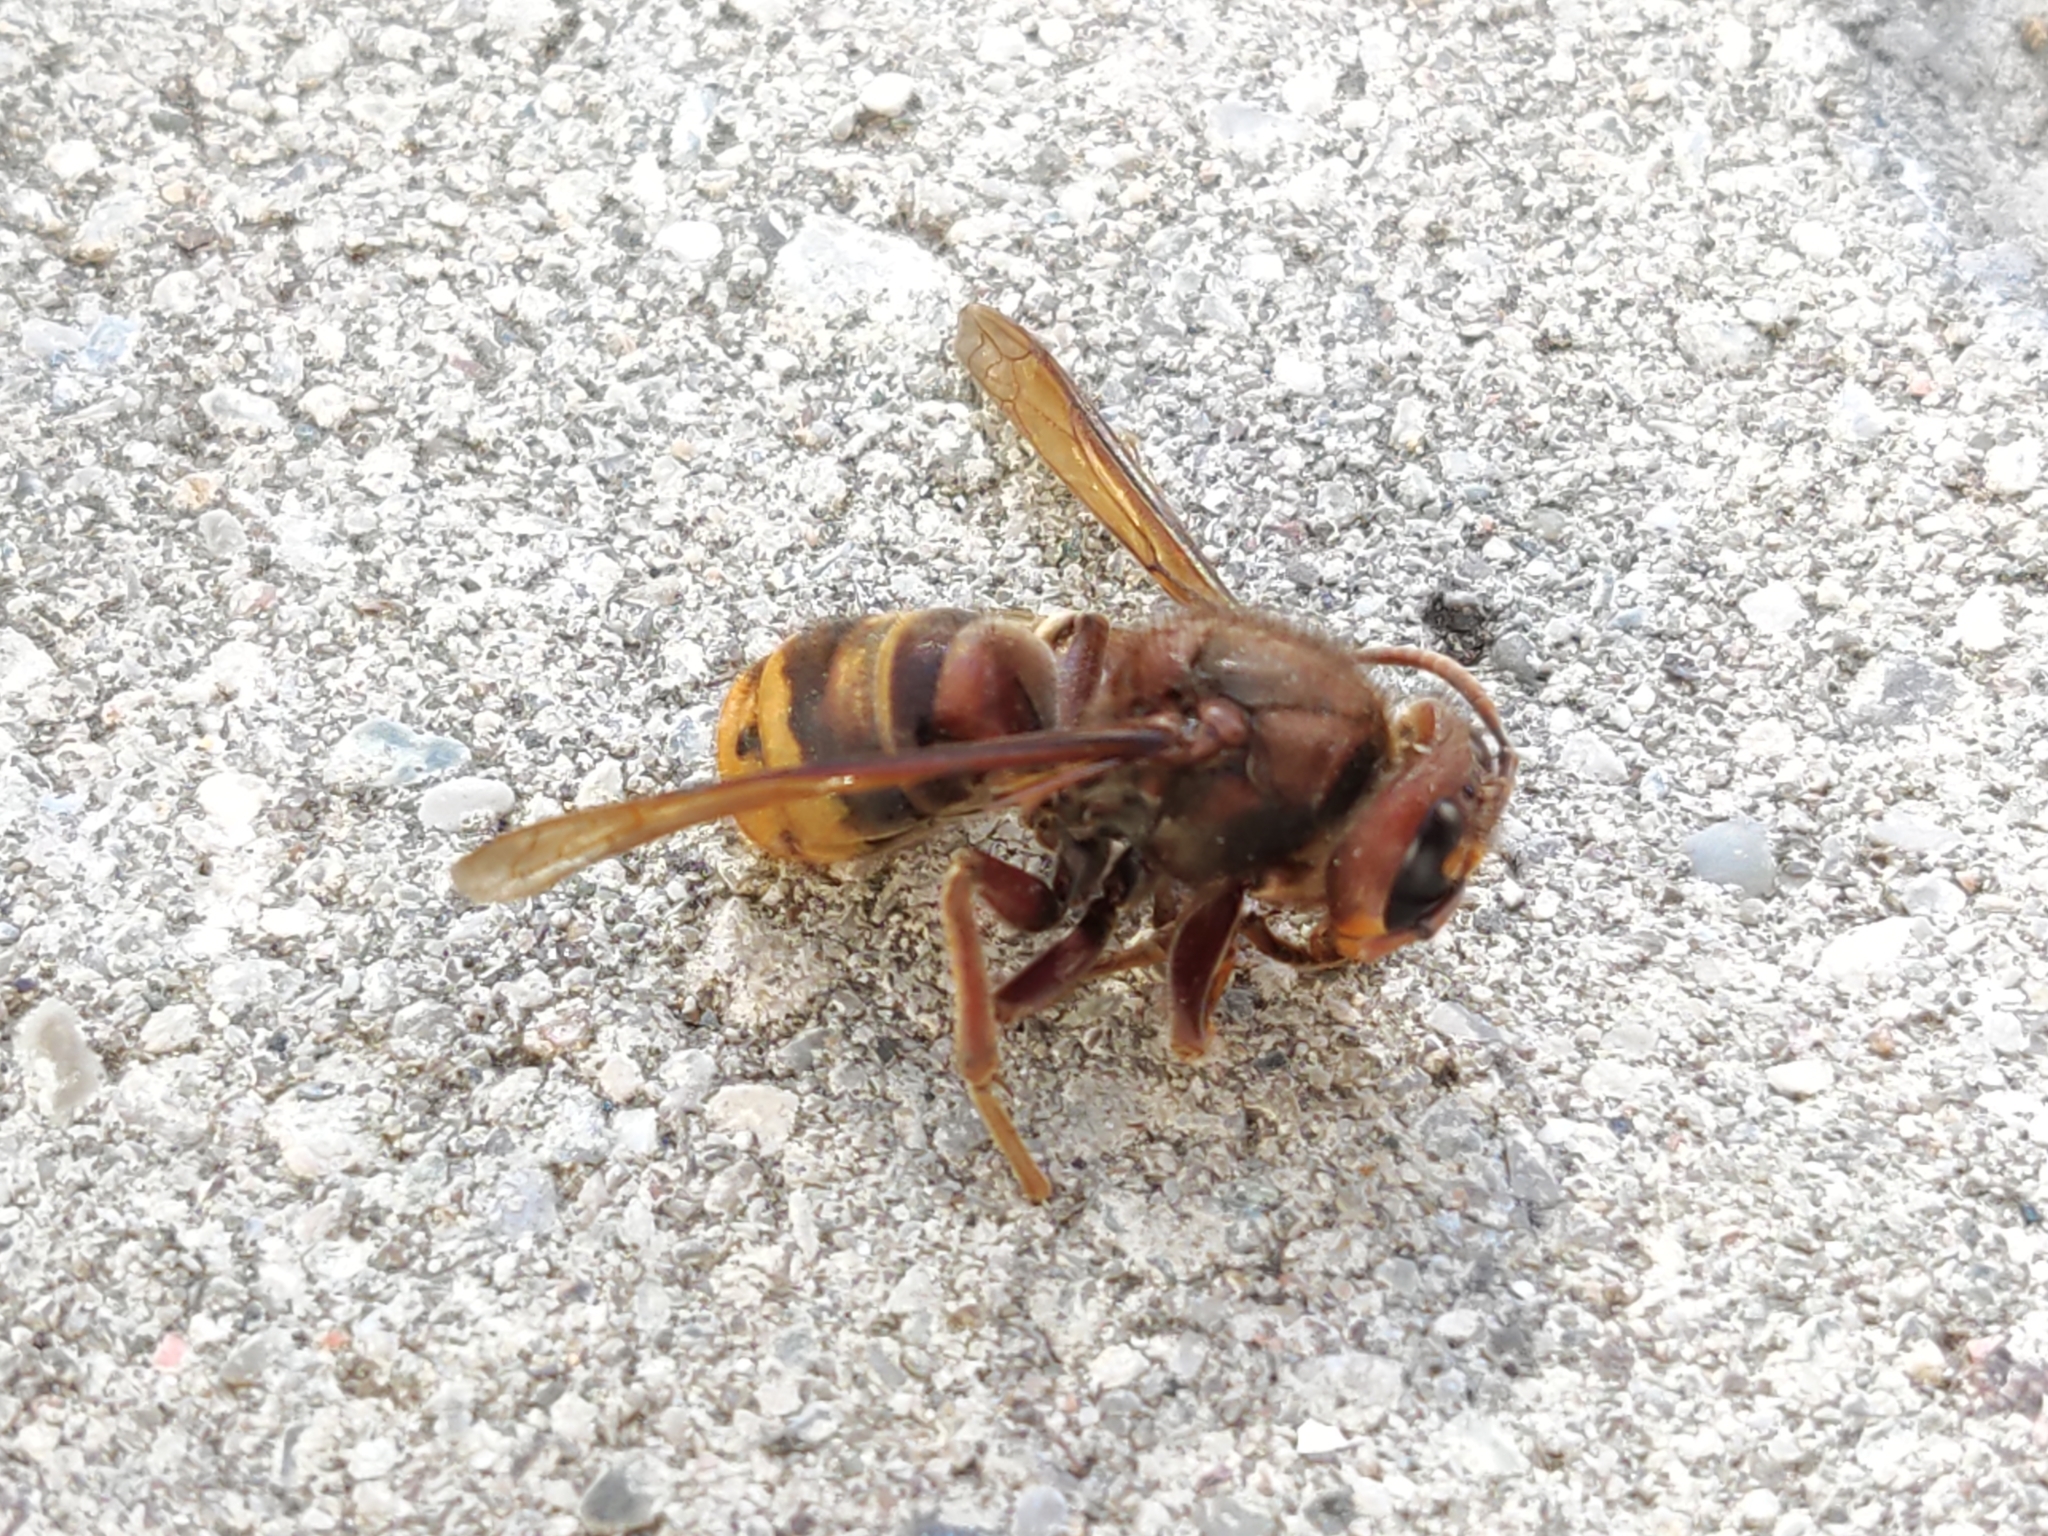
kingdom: Animalia
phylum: Arthropoda
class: Insecta
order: Hymenoptera
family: Vespidae
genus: Vespa
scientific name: Vespa crabro
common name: Hornet
